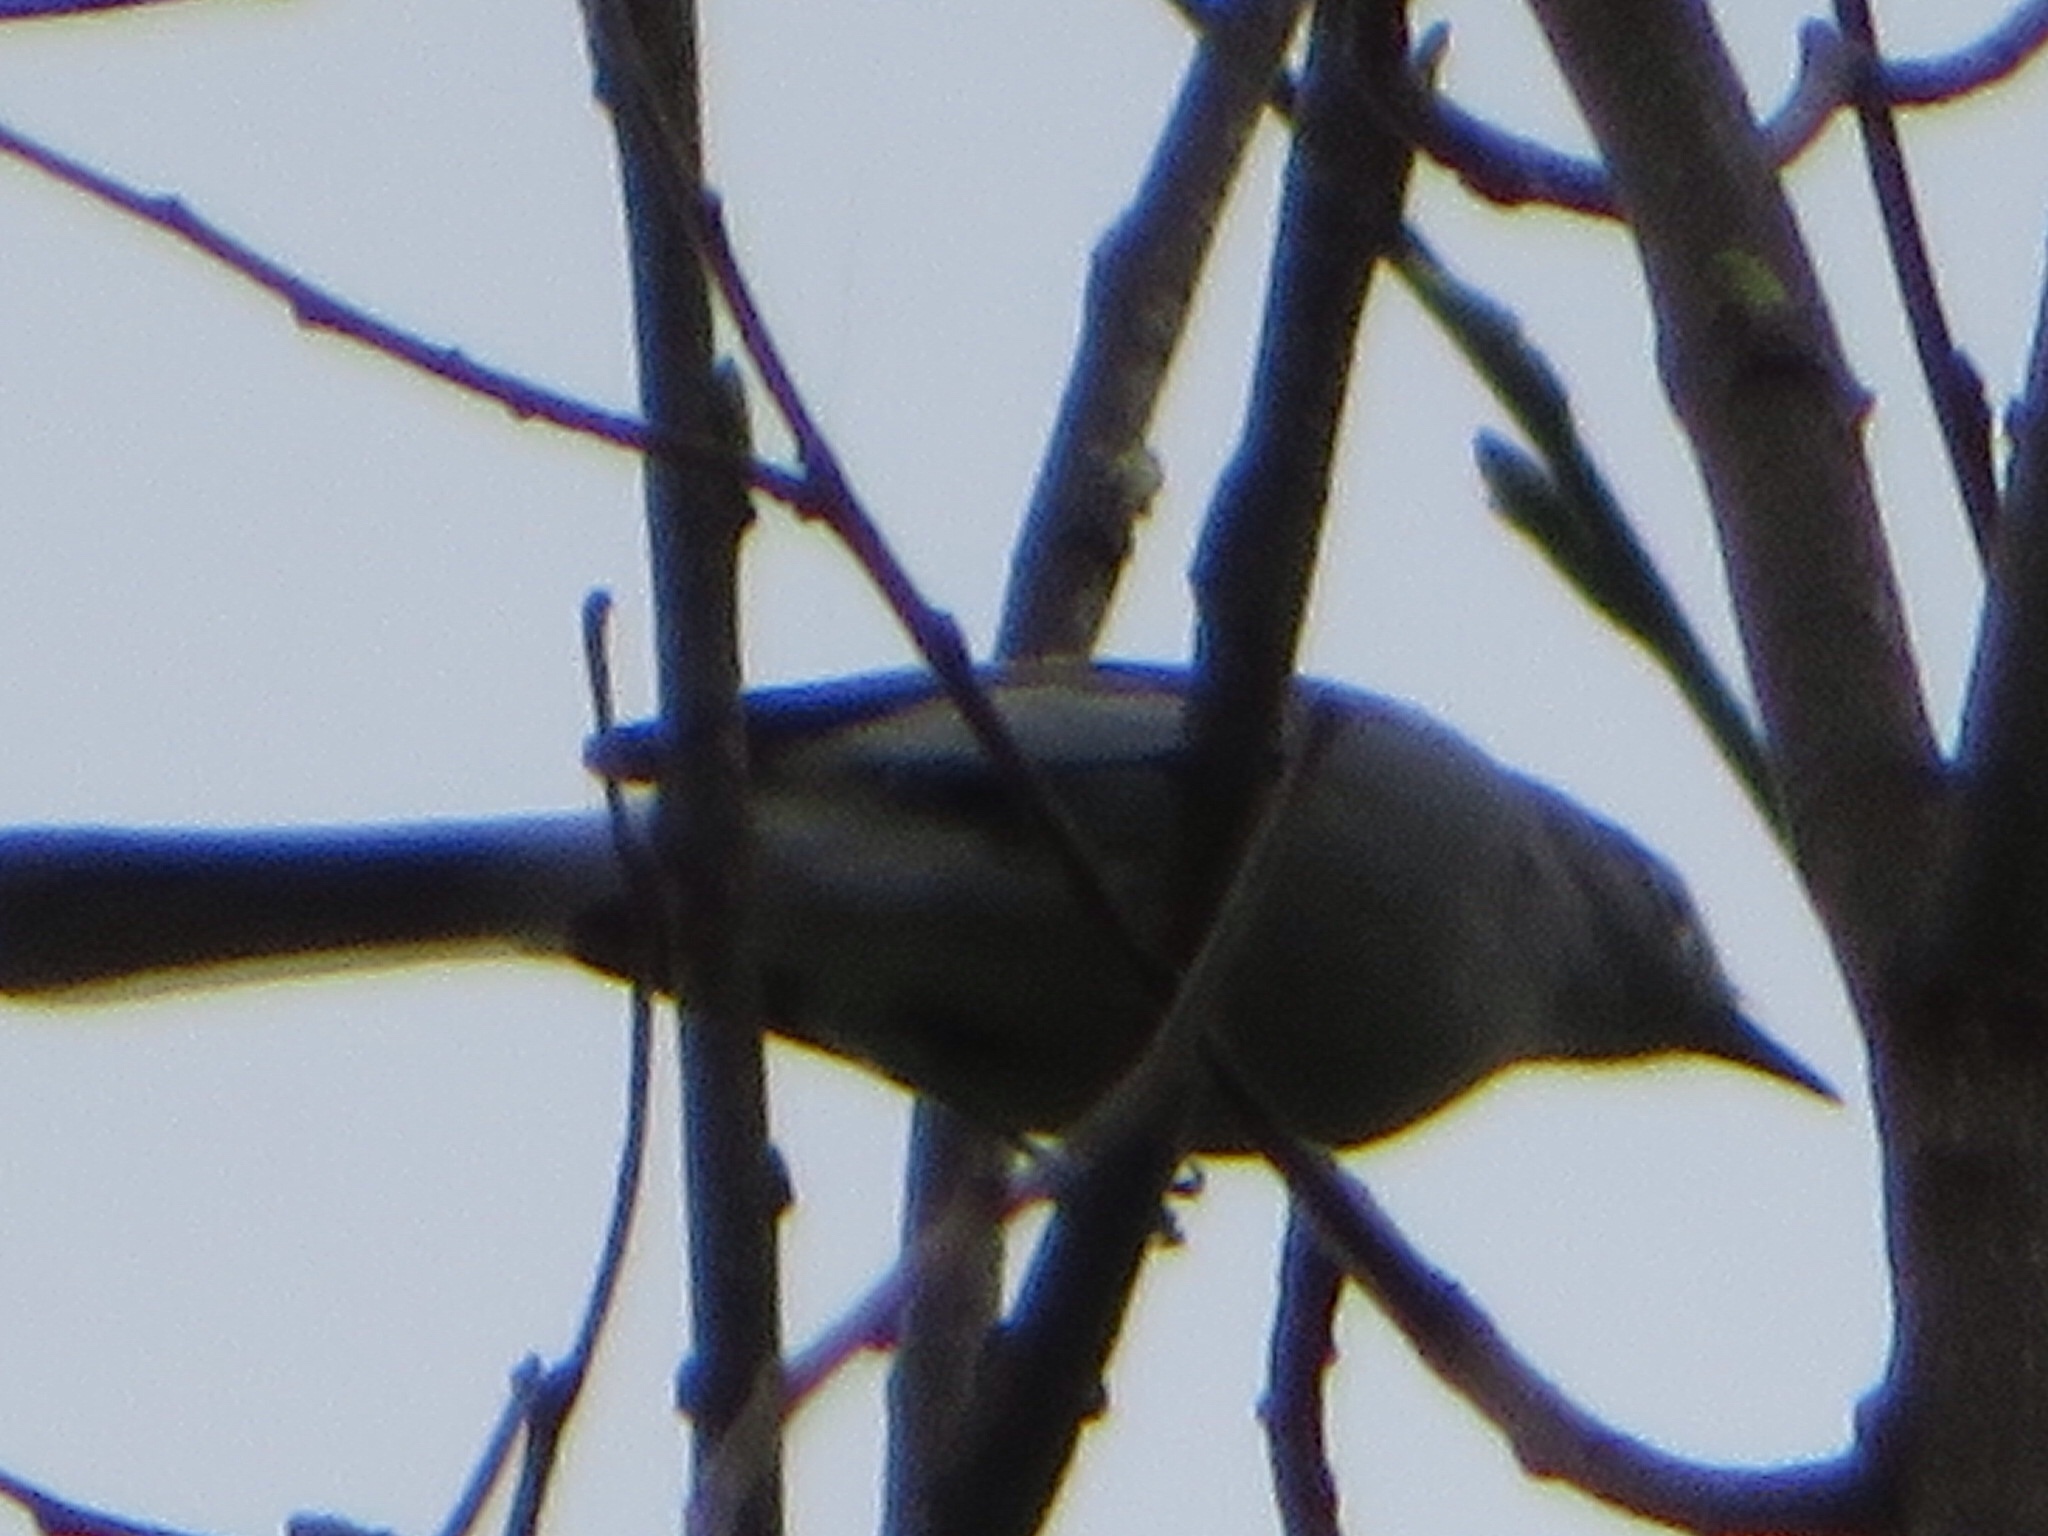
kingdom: Animalia
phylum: Chordata
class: Aves
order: Passeriformes
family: Polioptilidae
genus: Polioptila
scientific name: Polioptila caerulea
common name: Blue-gray gnatcatcher
